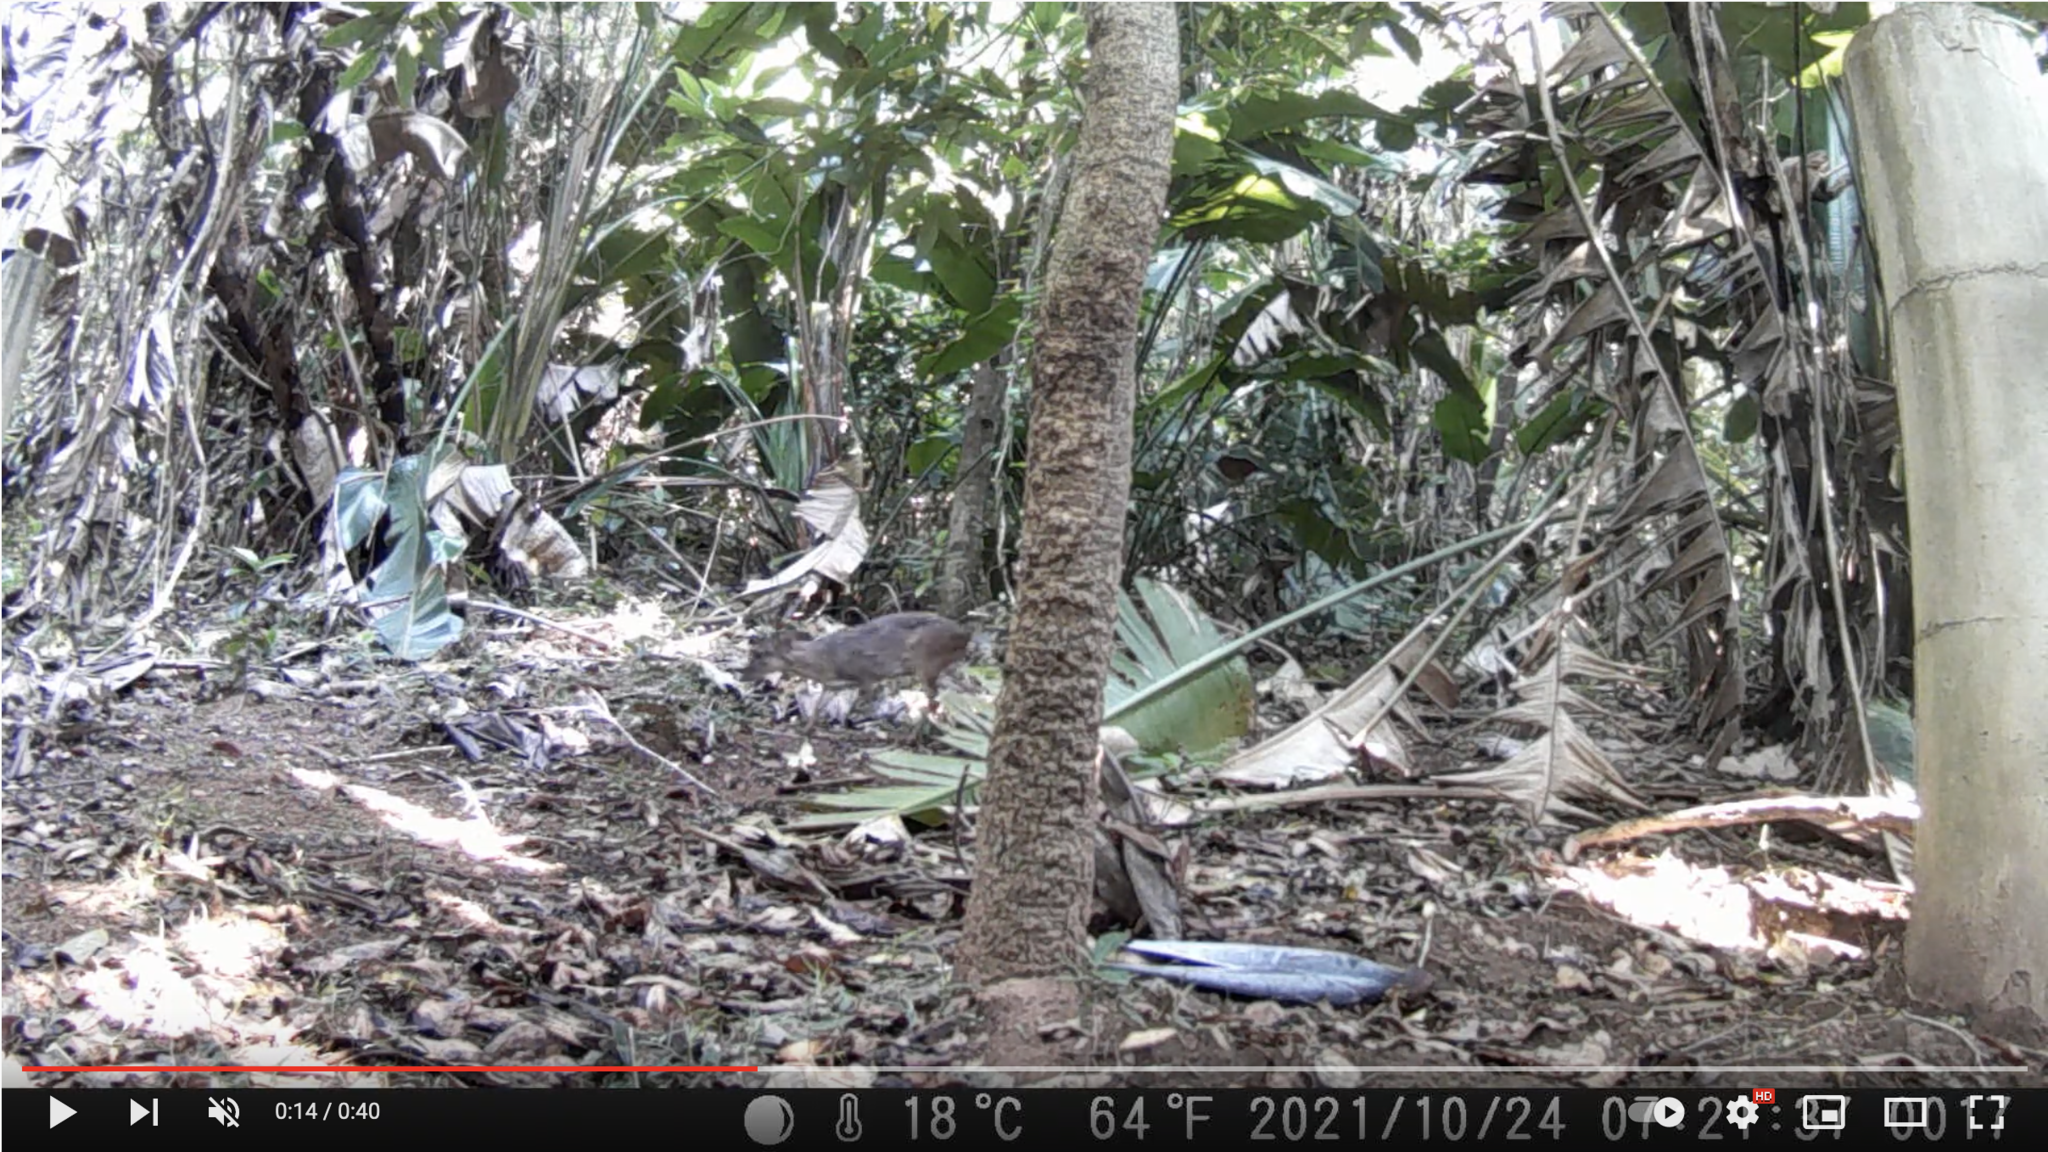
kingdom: Animalia
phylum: Chordata
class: Mammalia
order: Artiodactyla
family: Bovidae
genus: Philantomba
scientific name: Philantomba monticola
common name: Blue duiker
